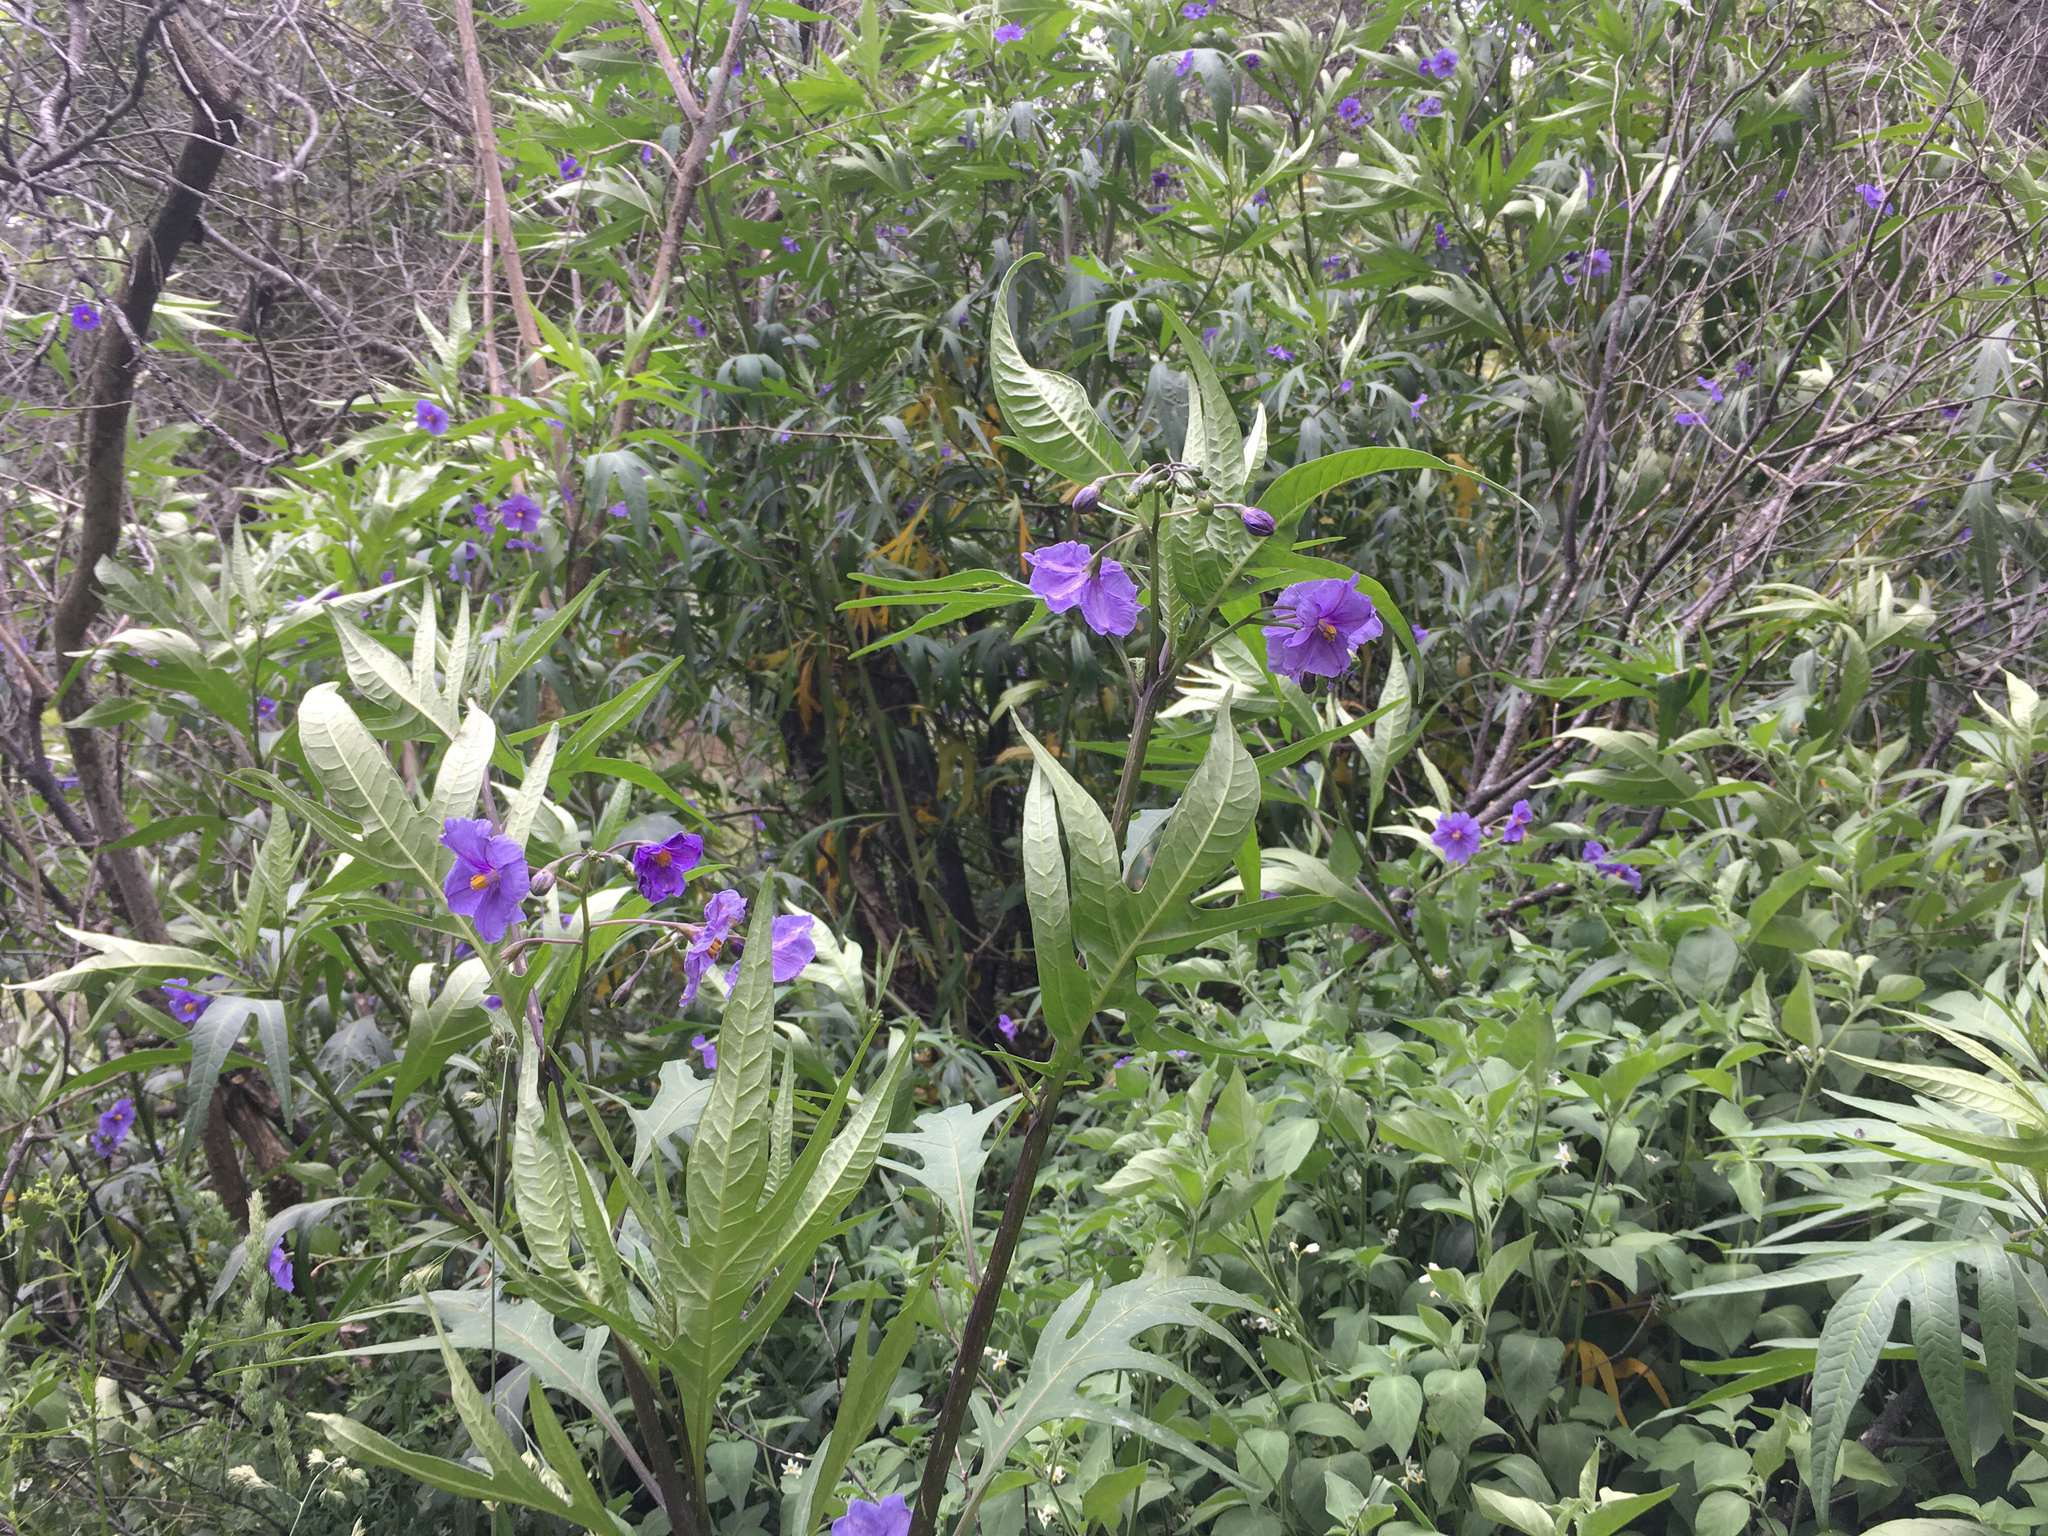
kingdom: Plantae
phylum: Tracheophyta
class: Magnoliopsida
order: Solanales
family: Solanaceae
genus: Solanum
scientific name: Solanum laciniatum
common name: Kangaroo-apple
